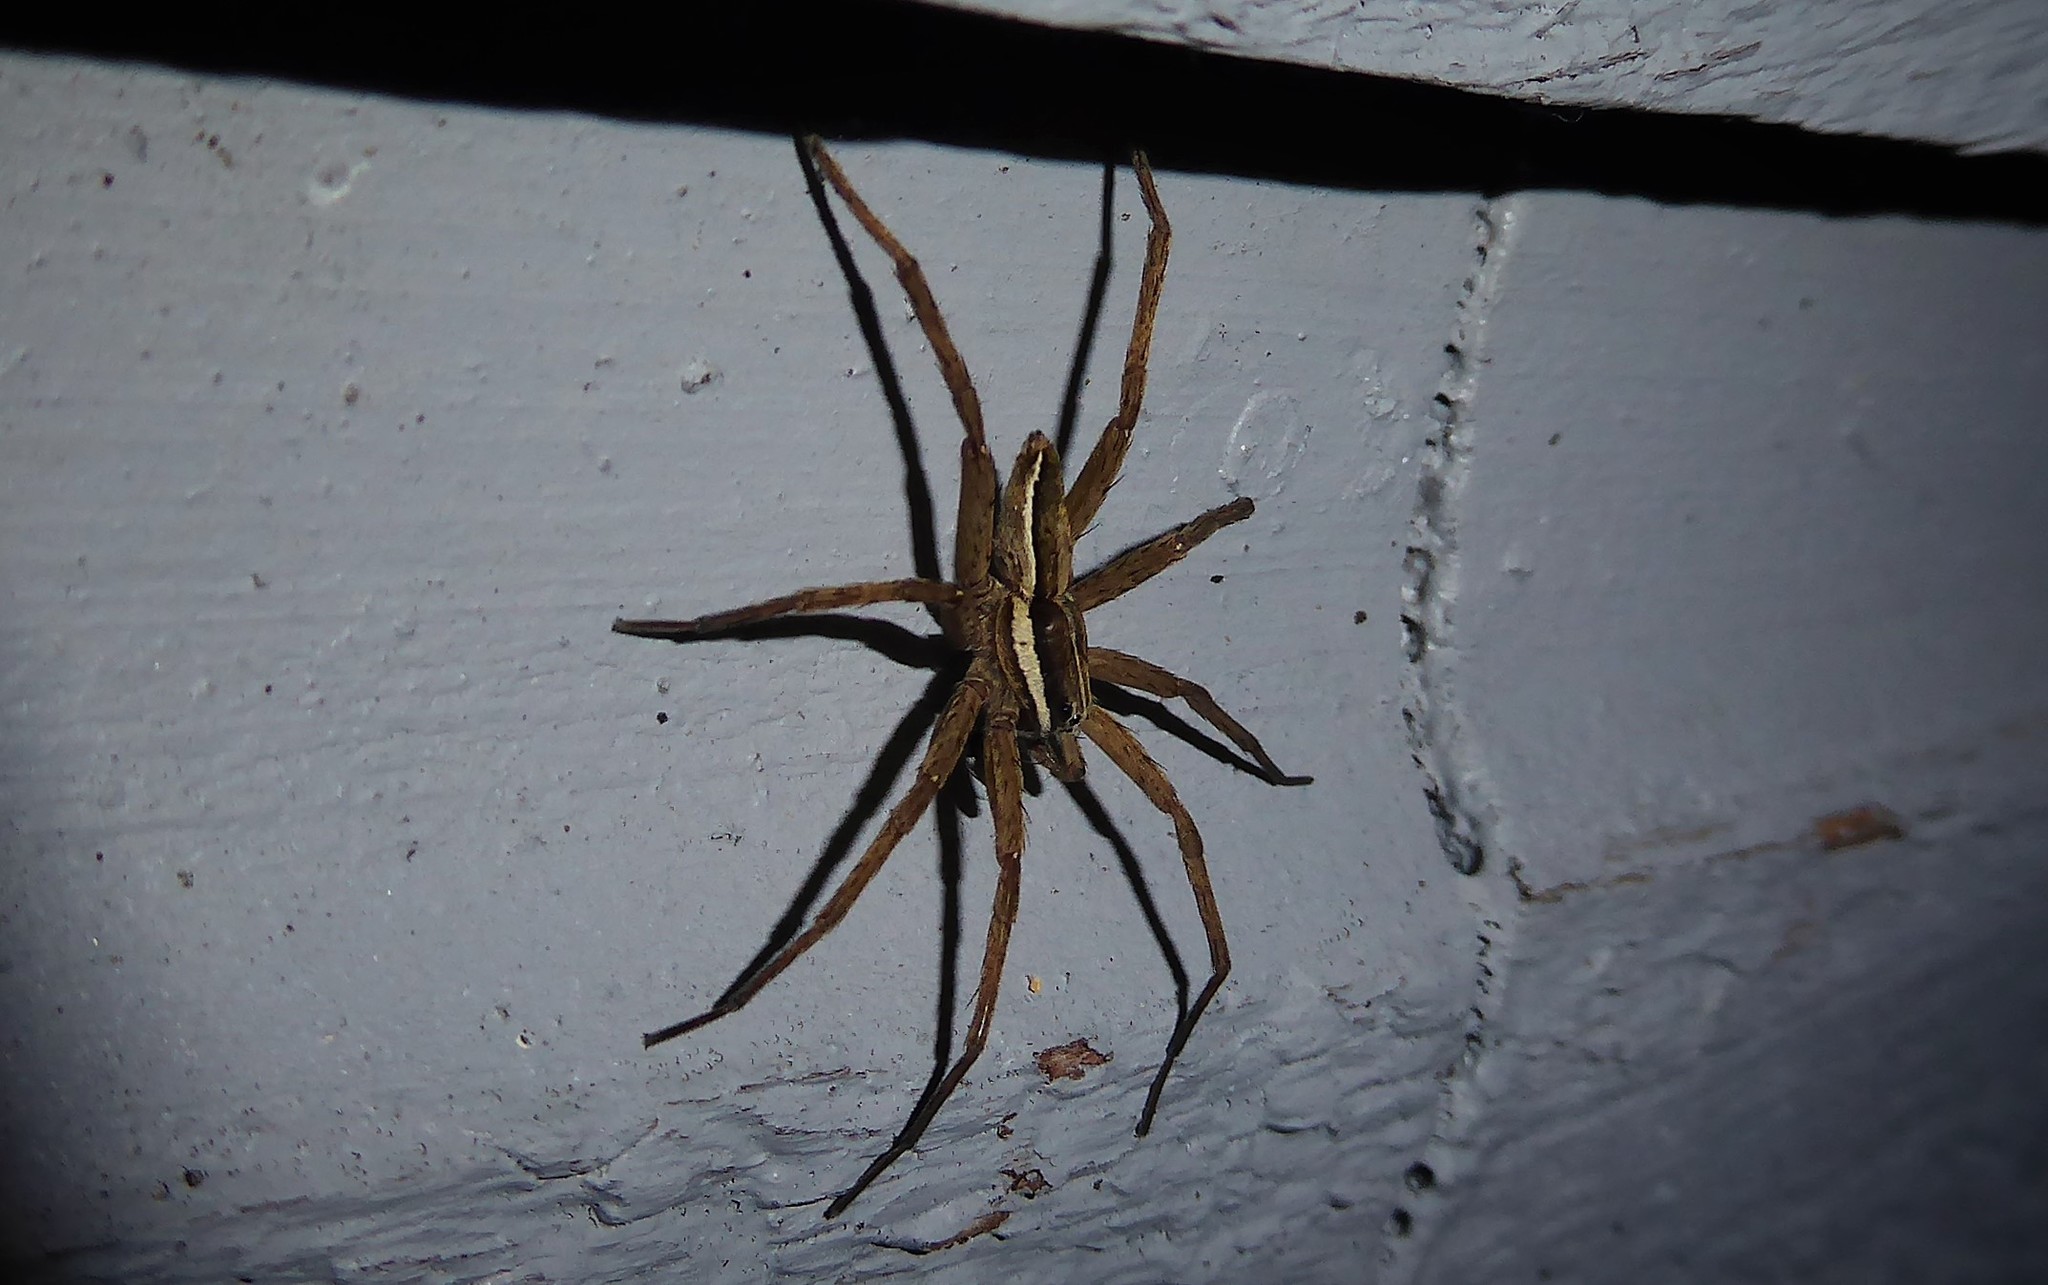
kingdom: Animalia
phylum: Arthropoda
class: Arachnida
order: Araneae
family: Pisauridae
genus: Dolomedes
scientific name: Dolomedes minor
